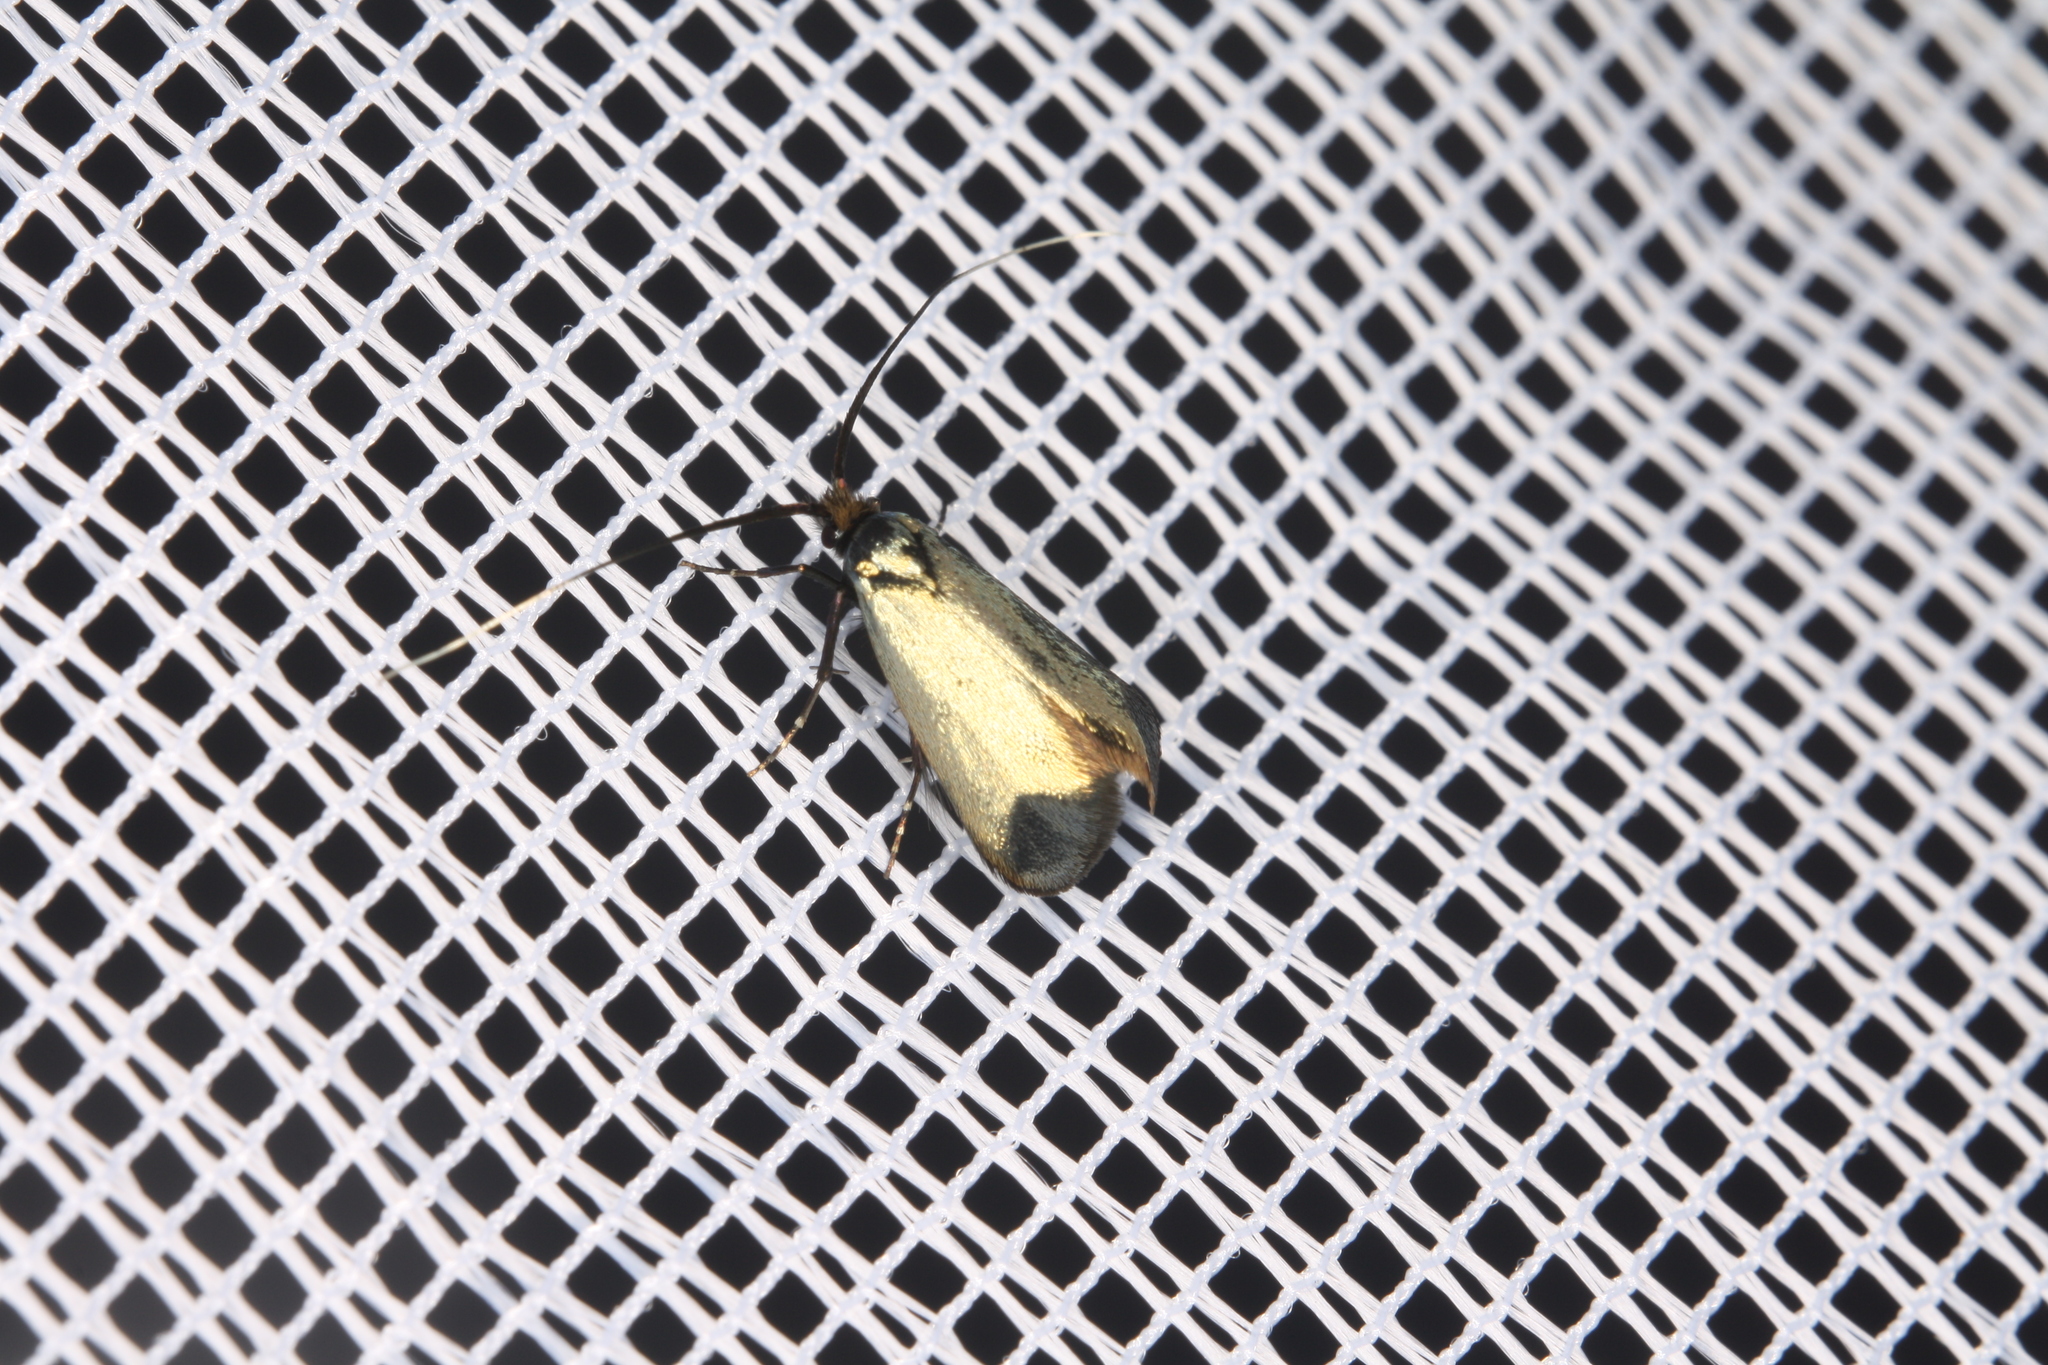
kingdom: Animalia
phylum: Arthropoda
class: Insecta
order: Lepidoptera
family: Adelidae
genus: Adela
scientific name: Adela viridella
